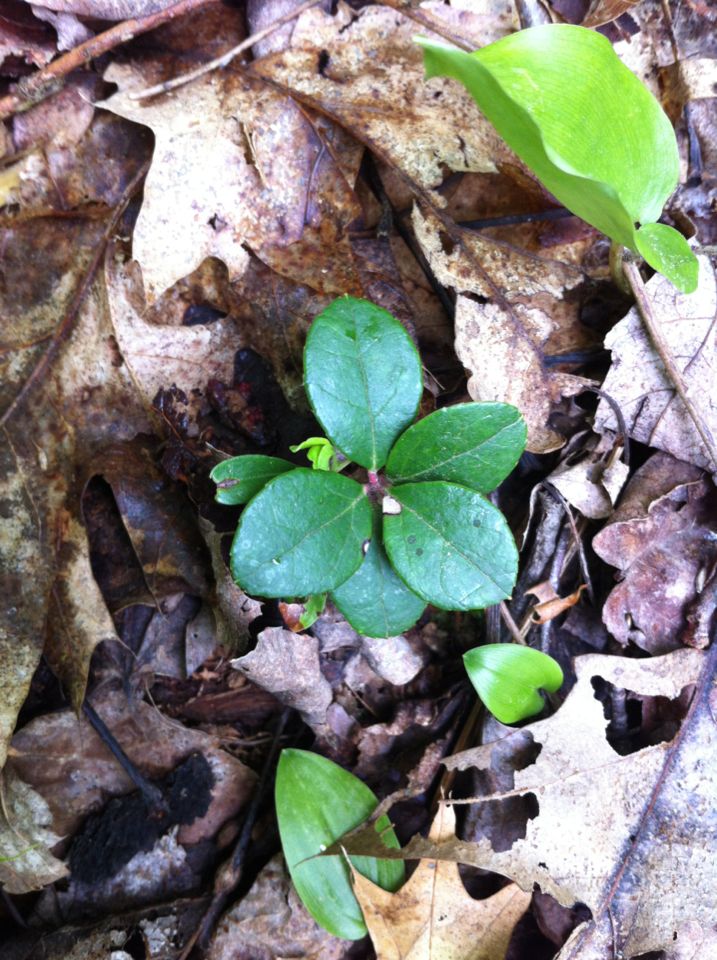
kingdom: Plantae
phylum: Tracheophyta
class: Magnoliopsida
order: Ericales
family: Ericaceae
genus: Gaultheria
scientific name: Gaultheria procumbens
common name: Checkerberry
